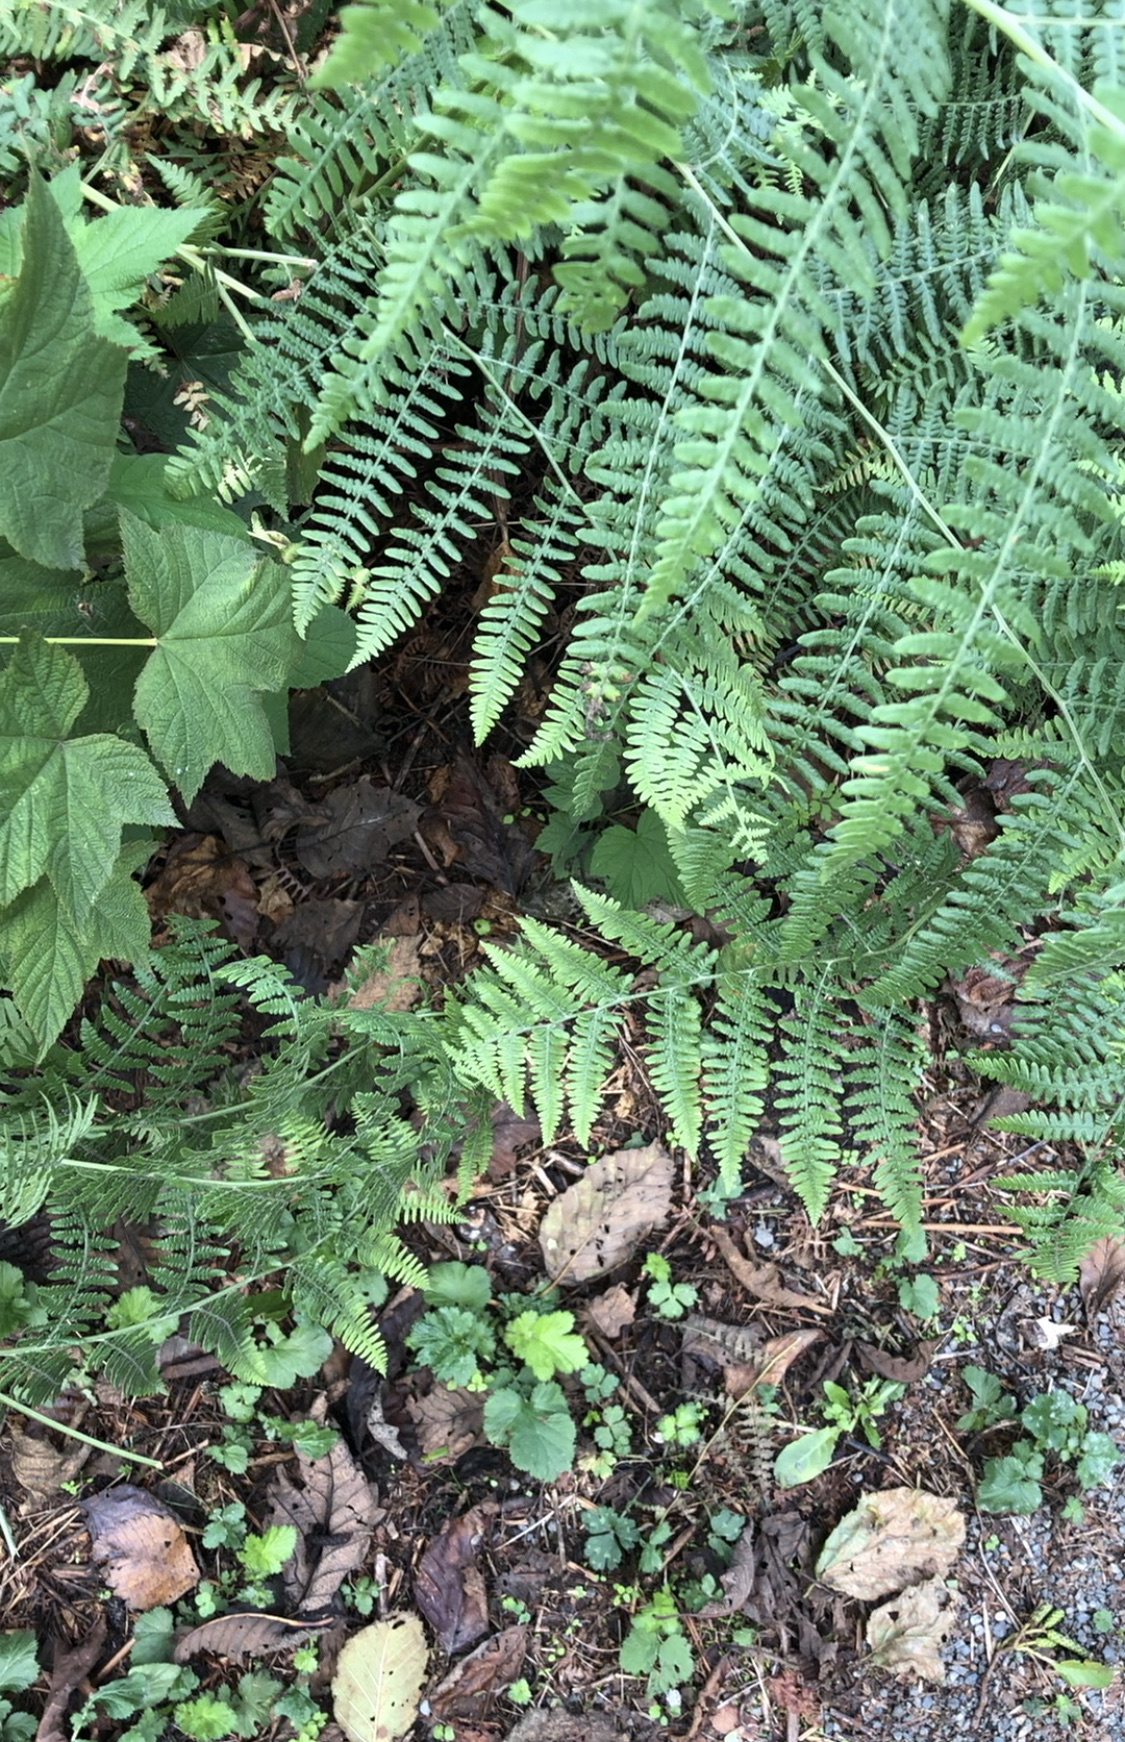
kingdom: Plantae
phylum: Tracheophyta
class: Polypodiopsida
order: Polypodiales
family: Dennstaedtiaceae
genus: Pteridium
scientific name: Pteridium aquilinum
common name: Bracken
